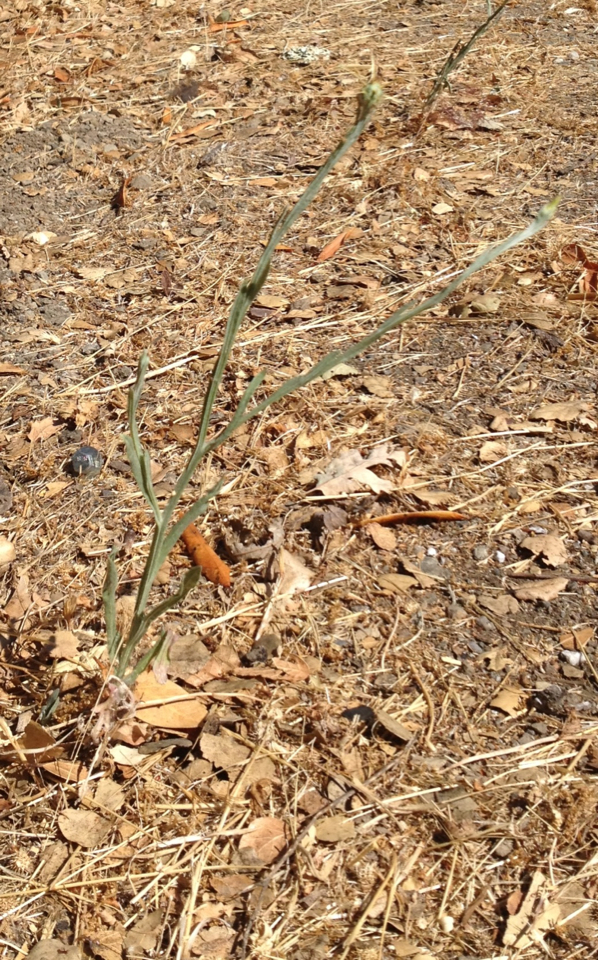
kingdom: Plantae
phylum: Tracheophyta
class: Magnoliopsida
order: Asterales
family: Asteraceae
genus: Centaurea
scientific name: Centaurea solstitialis
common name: Yellow star-thistle
